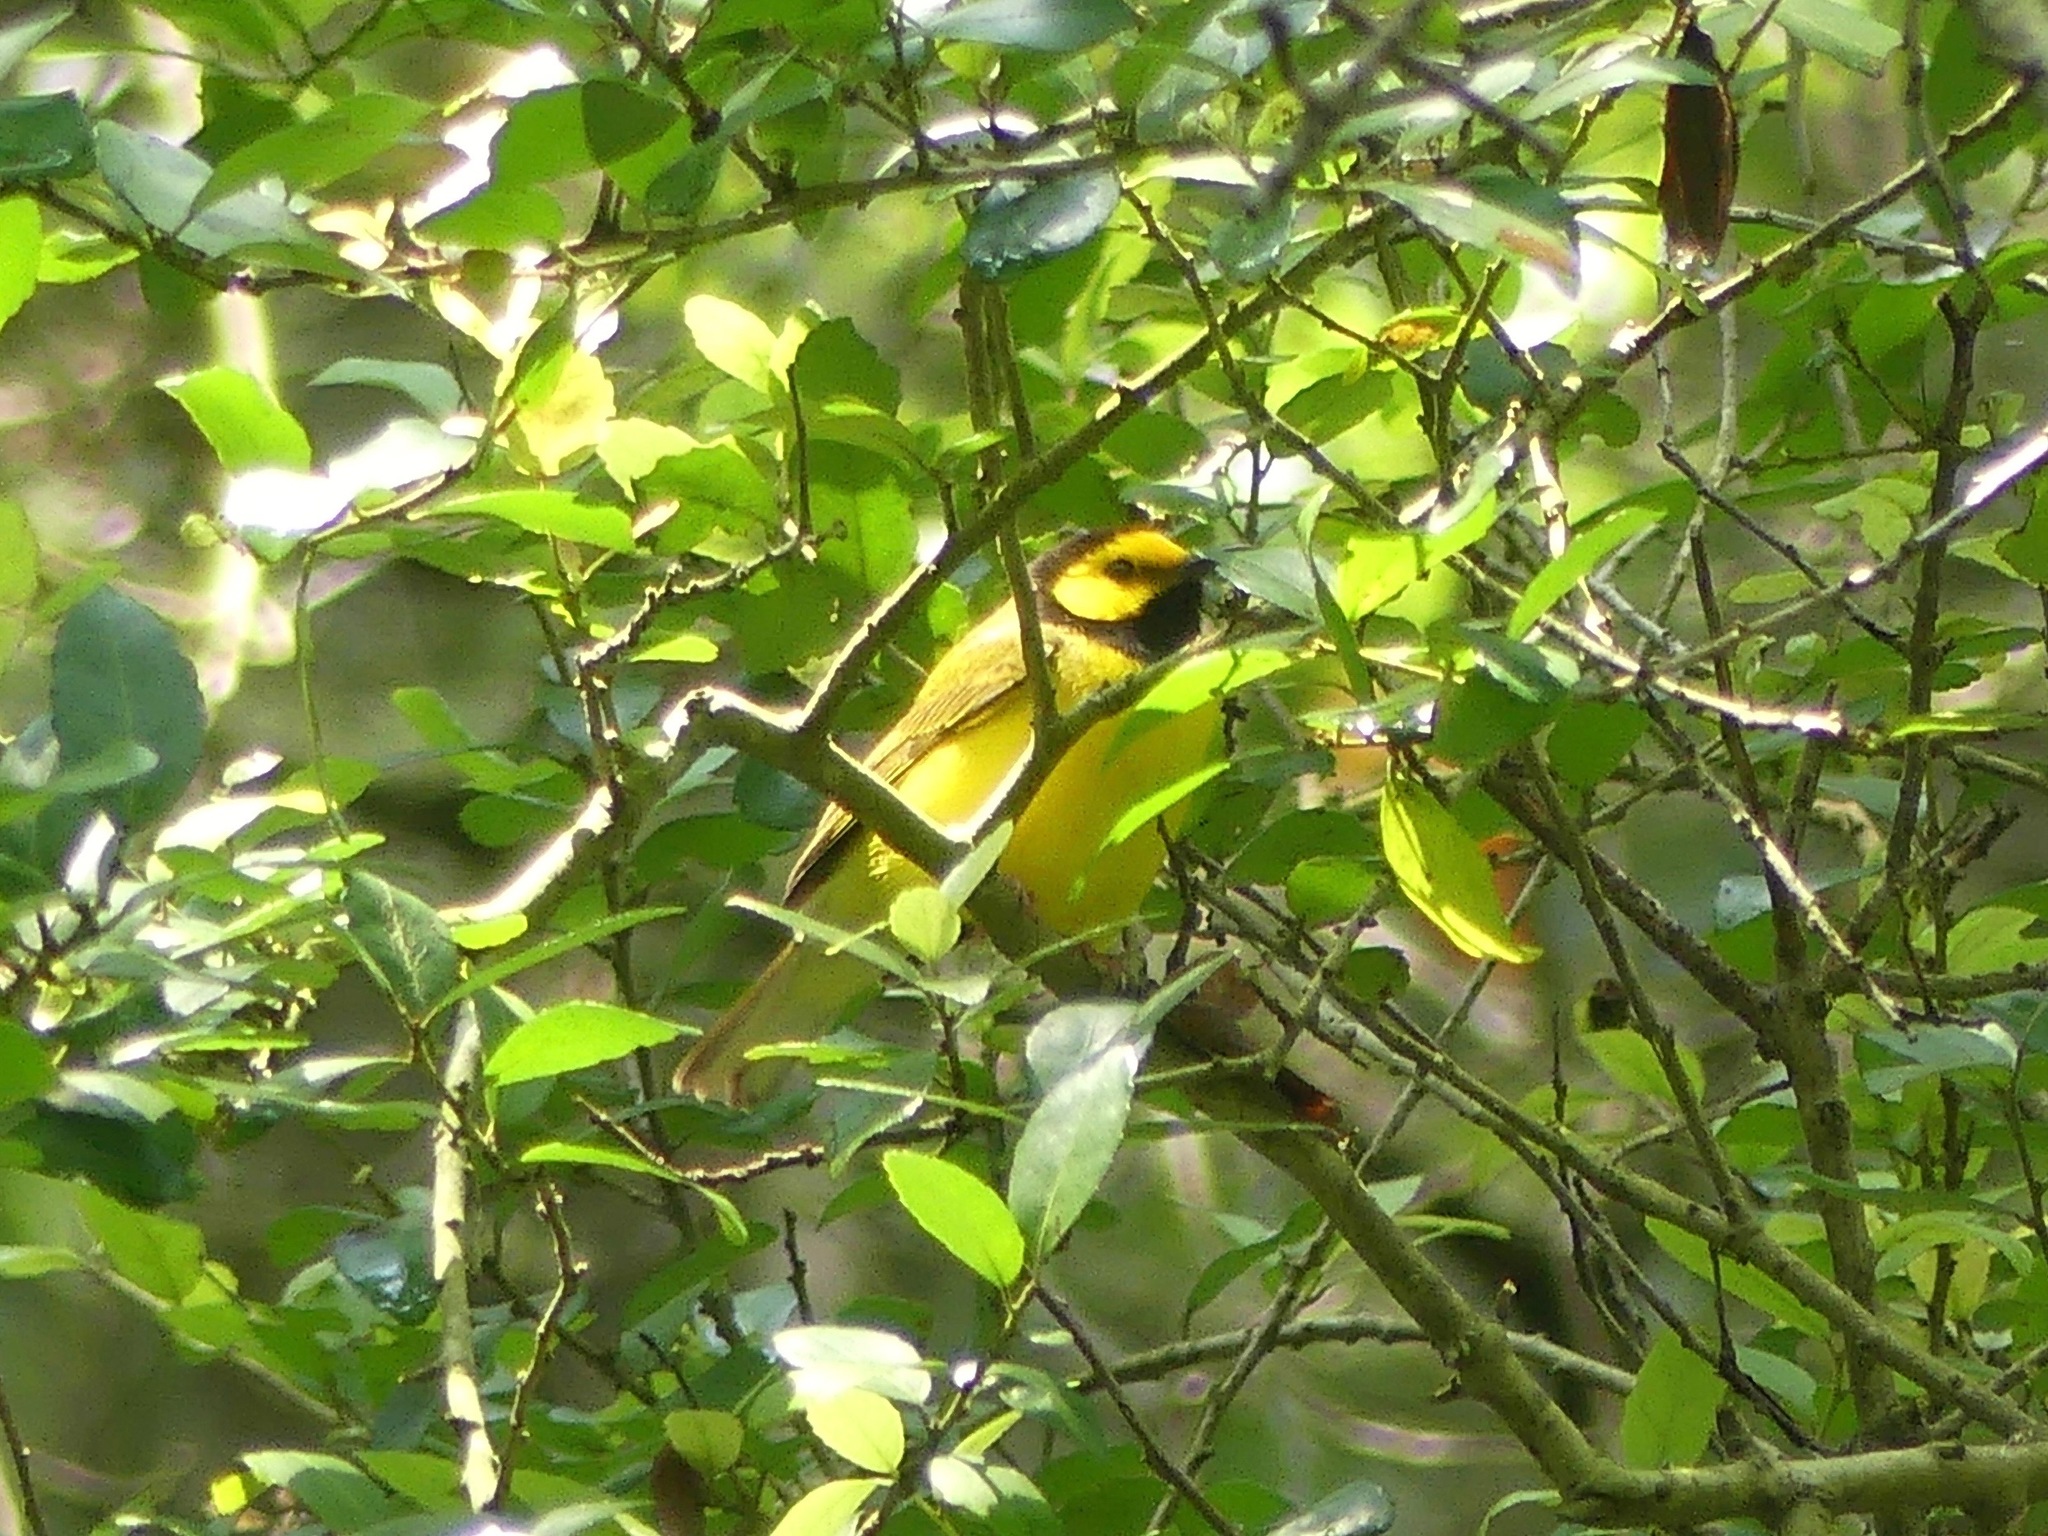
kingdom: Animalia
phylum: Chordata
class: Aves
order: Passeriformes
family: Parulidae
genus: Setophaga
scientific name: Setophaga citrina
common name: Hooded warbler
